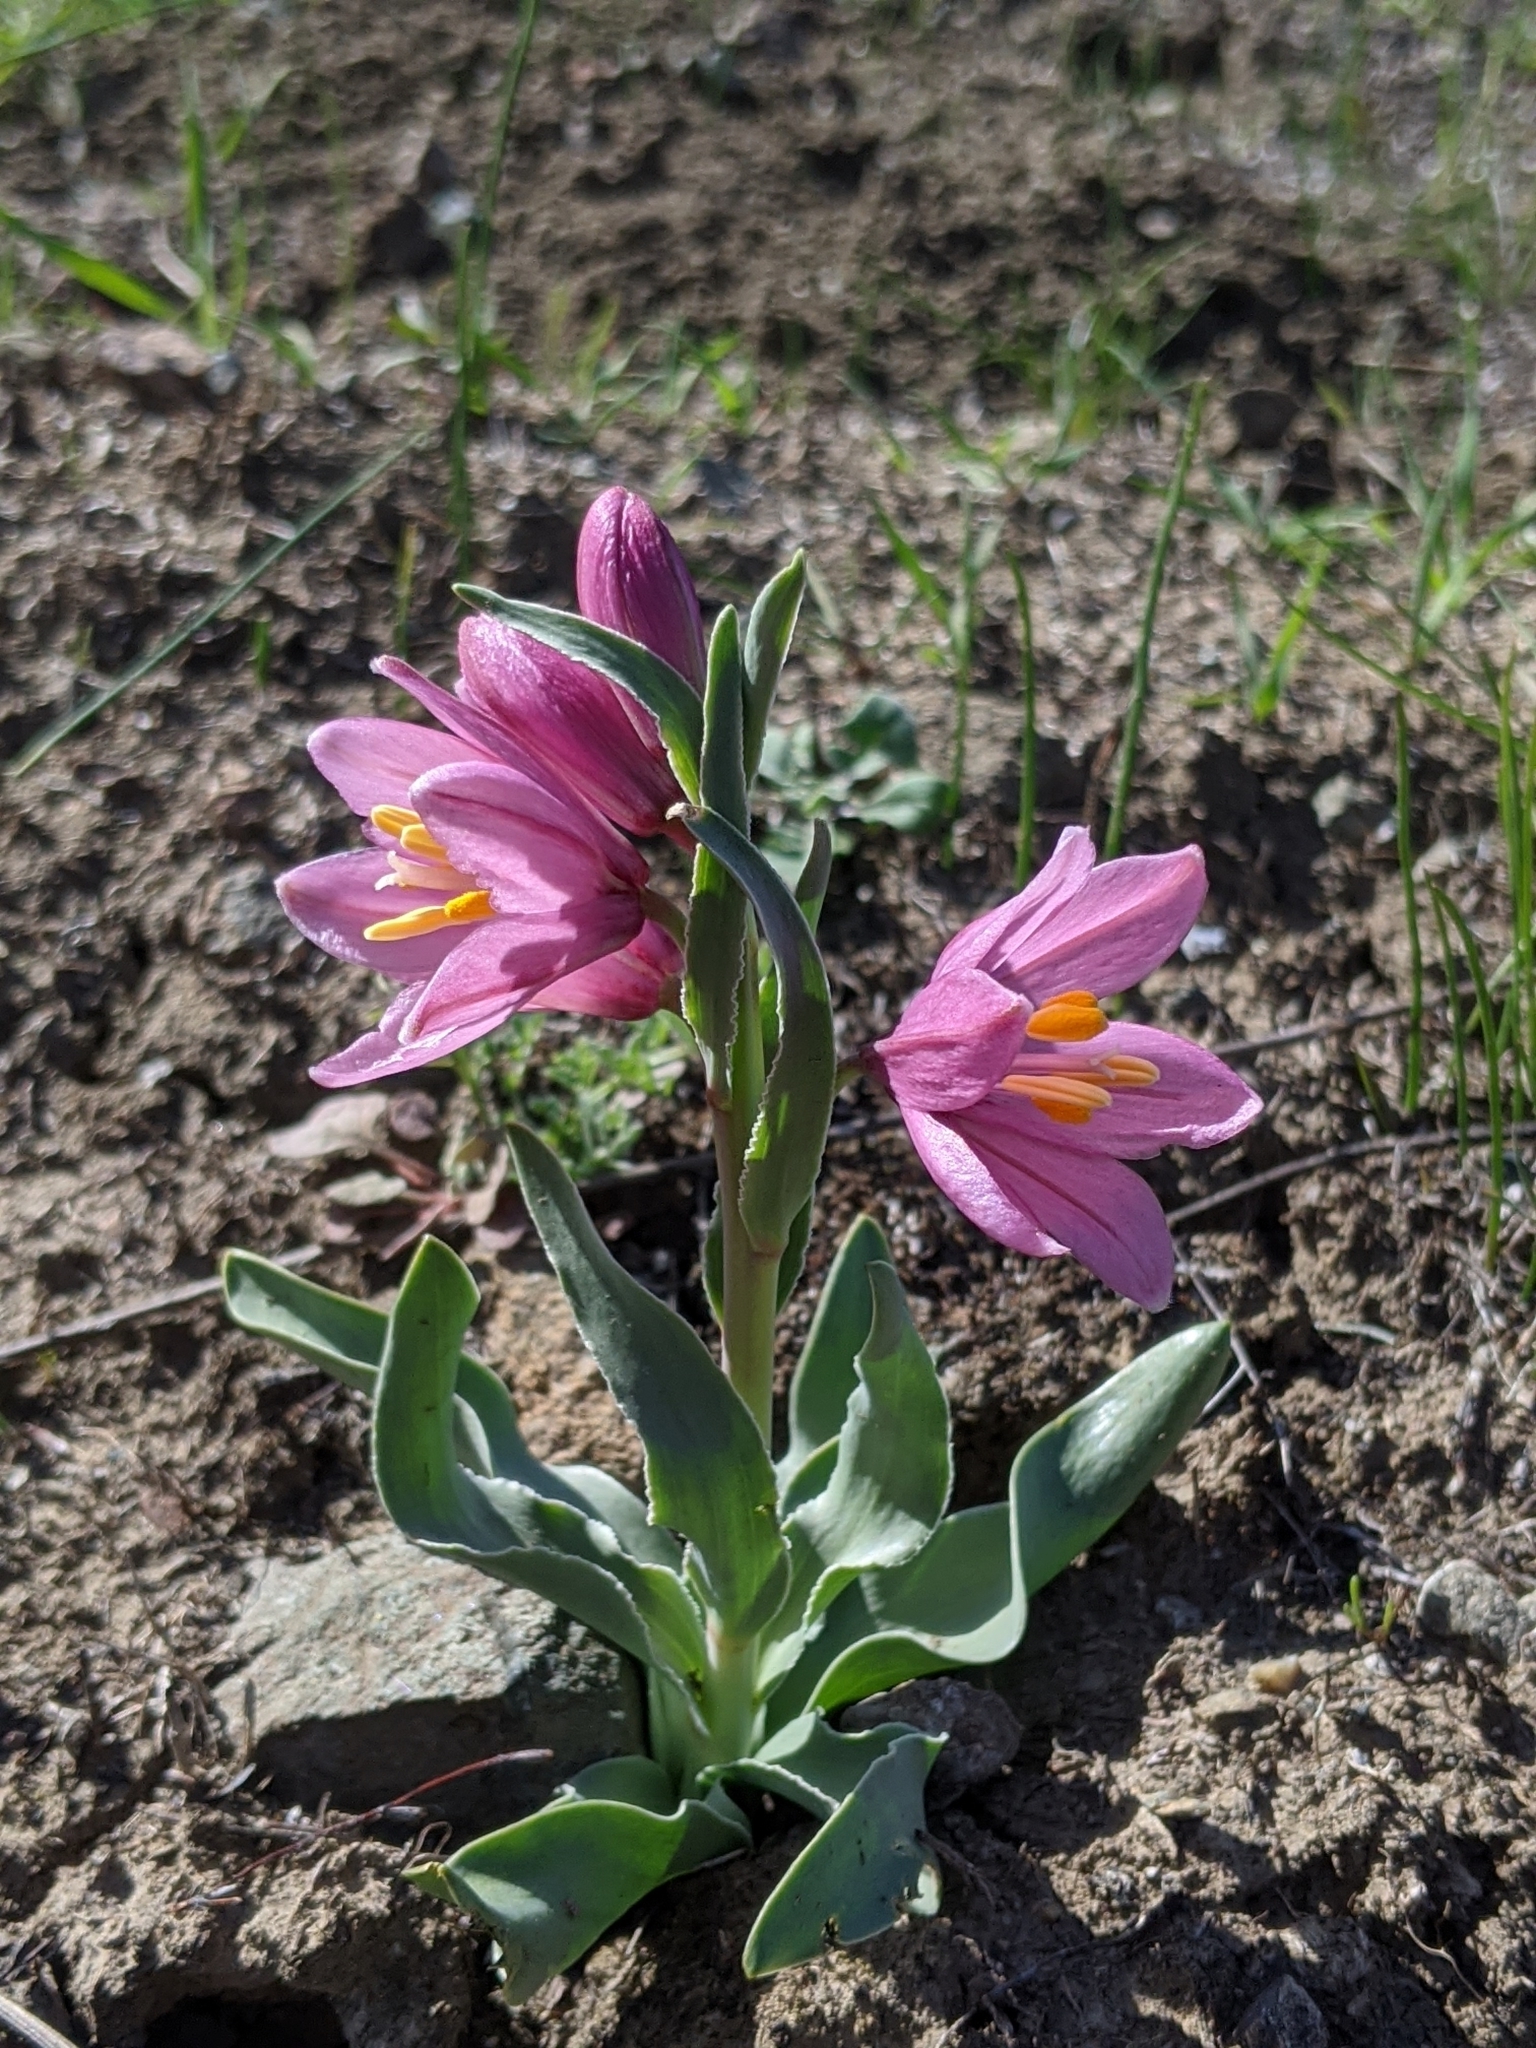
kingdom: Plantae
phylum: Tracheophyta
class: Liliopsida
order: Liliales
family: Liliaceae
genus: Fritillaria
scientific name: Fritillaria pluriflora
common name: Adobe-lily
